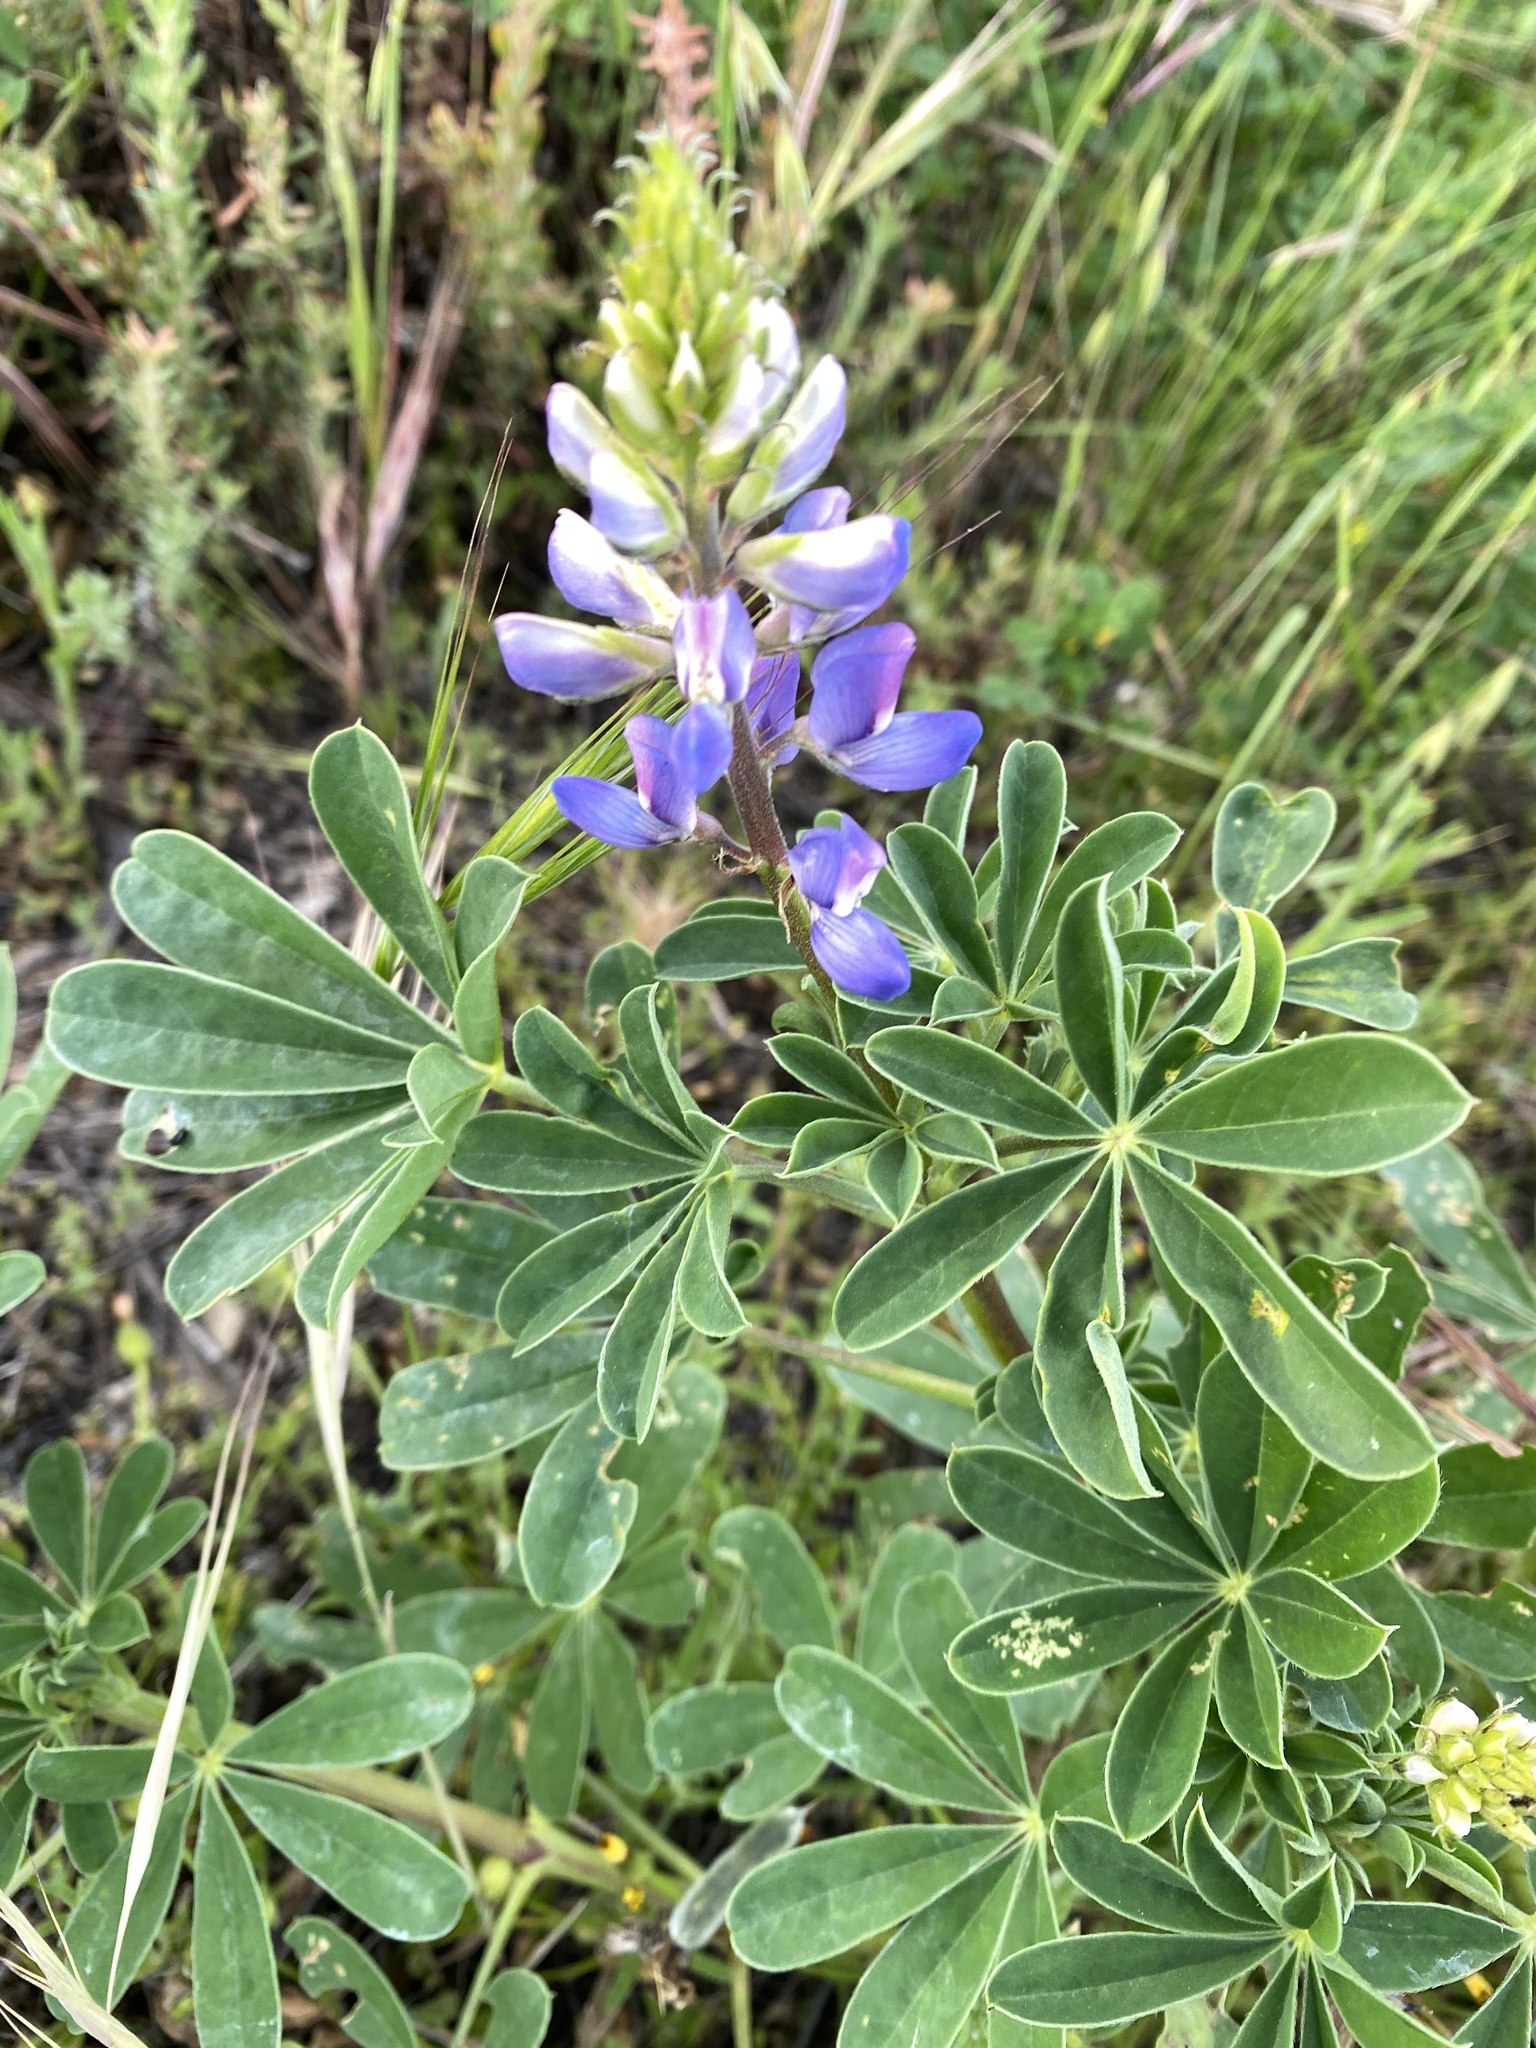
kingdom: Plantae
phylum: Tracheophyta
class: Magnoliopsida
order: Fabales
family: Fabaceae
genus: Lupinus
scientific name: Lupinus succulentus
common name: Arroyo lupine
